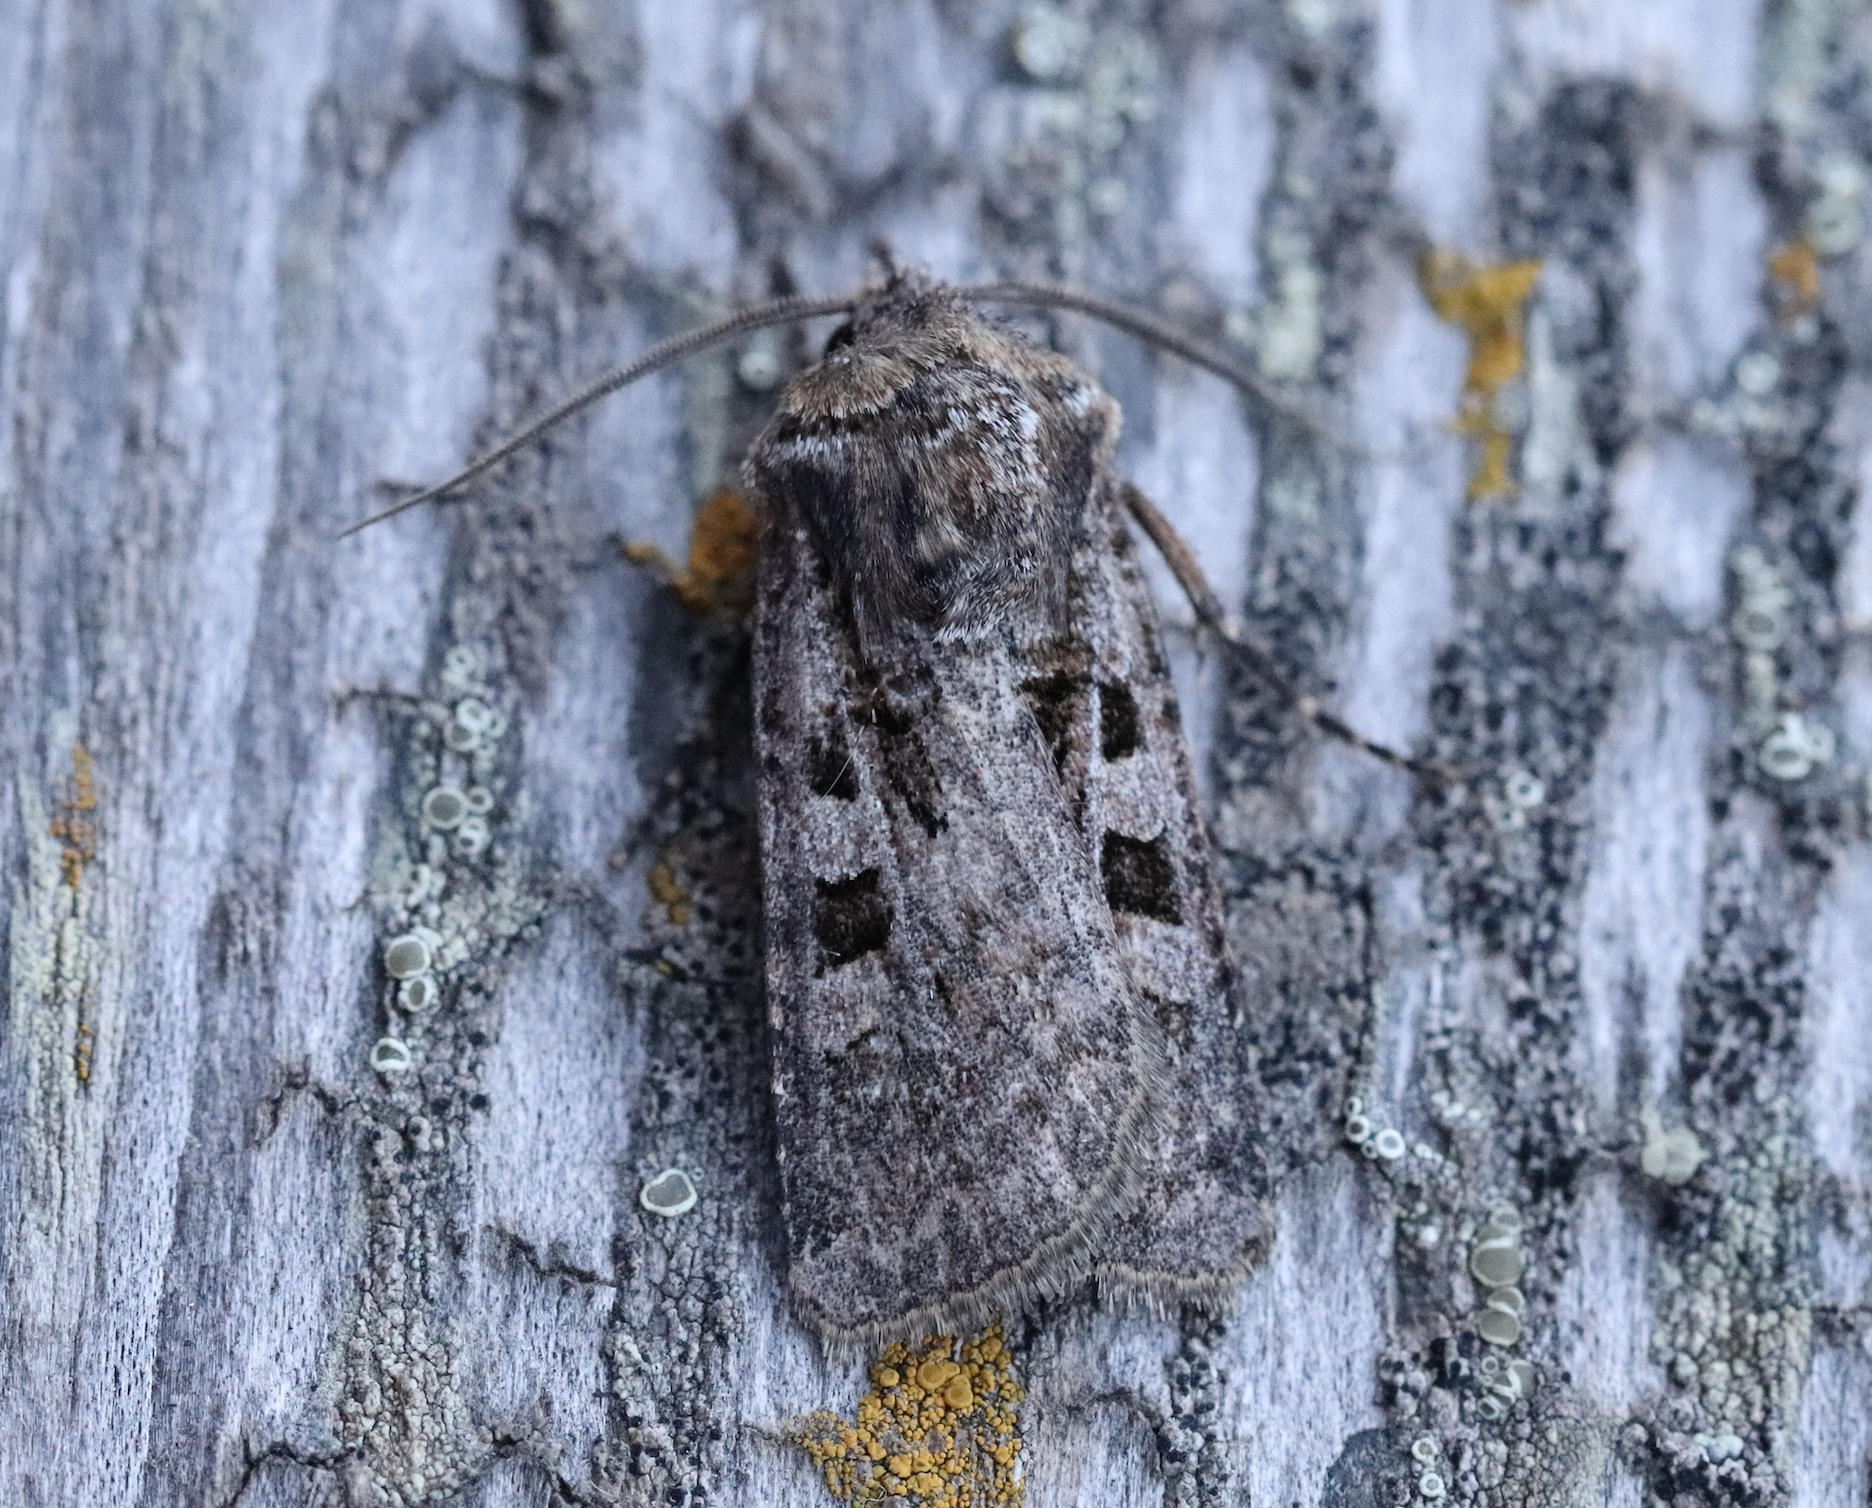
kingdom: Animalia
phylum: Arthropoda
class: Insecta
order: Lepidoptera
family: Noctuidae
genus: Euxoa
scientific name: Euxoa recussa
